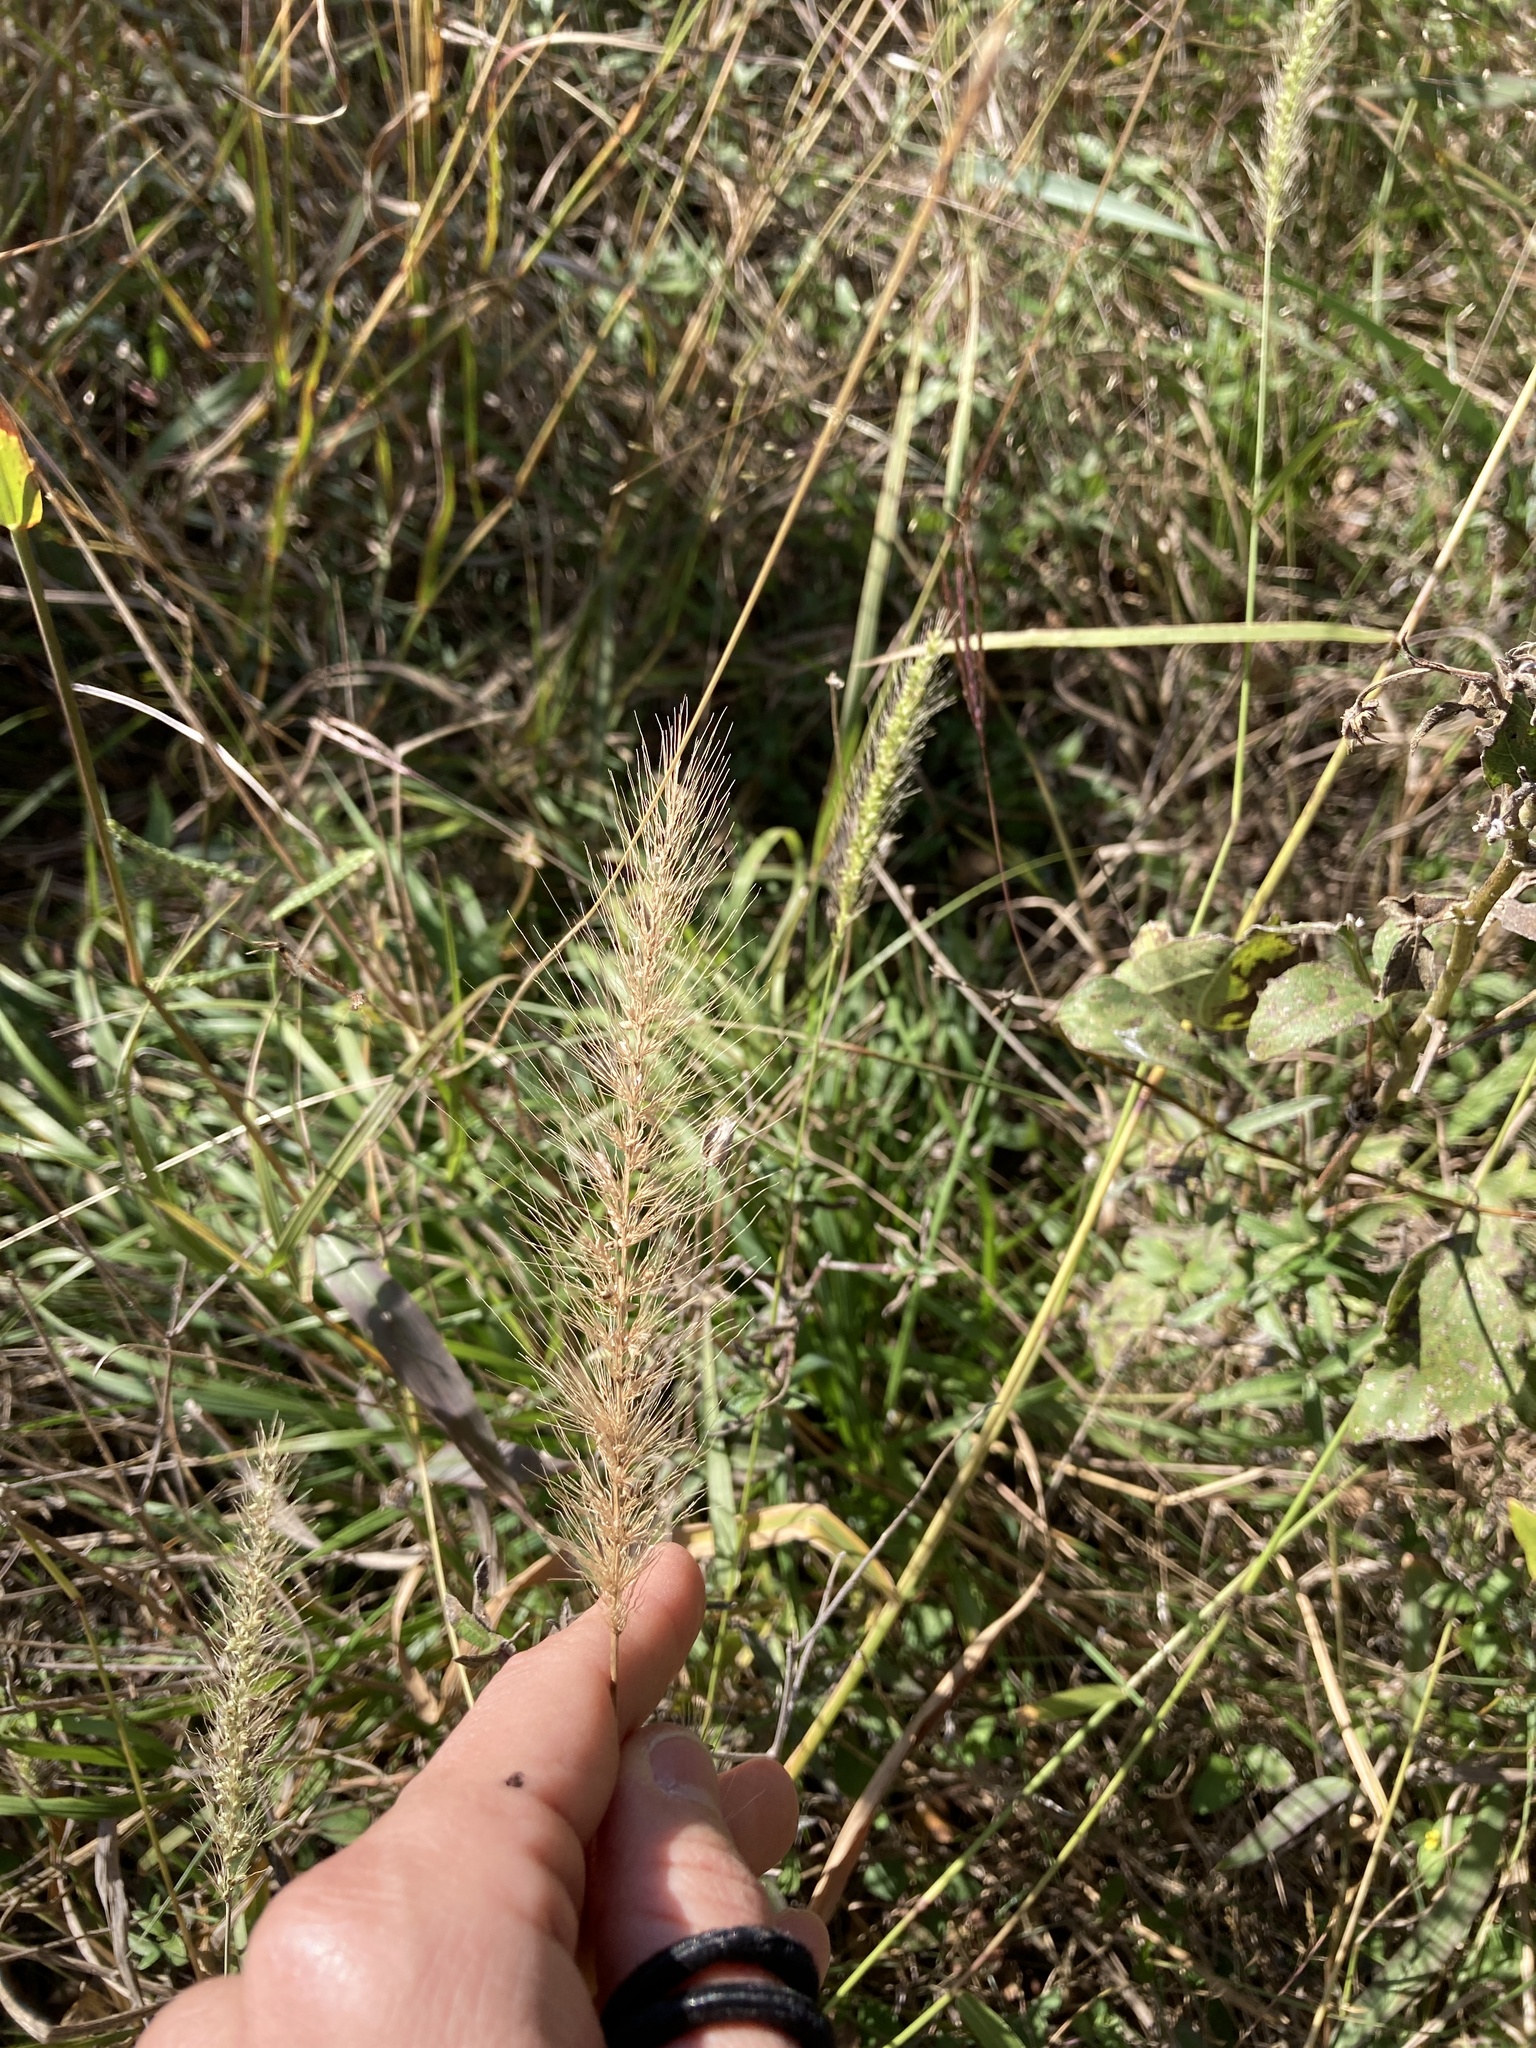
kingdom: Plantae
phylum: Tracheophyta
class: Liliopsida
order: Poales
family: Poaceae
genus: Setaria
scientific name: Setaria scheelei
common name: Southwestern bristle grass
